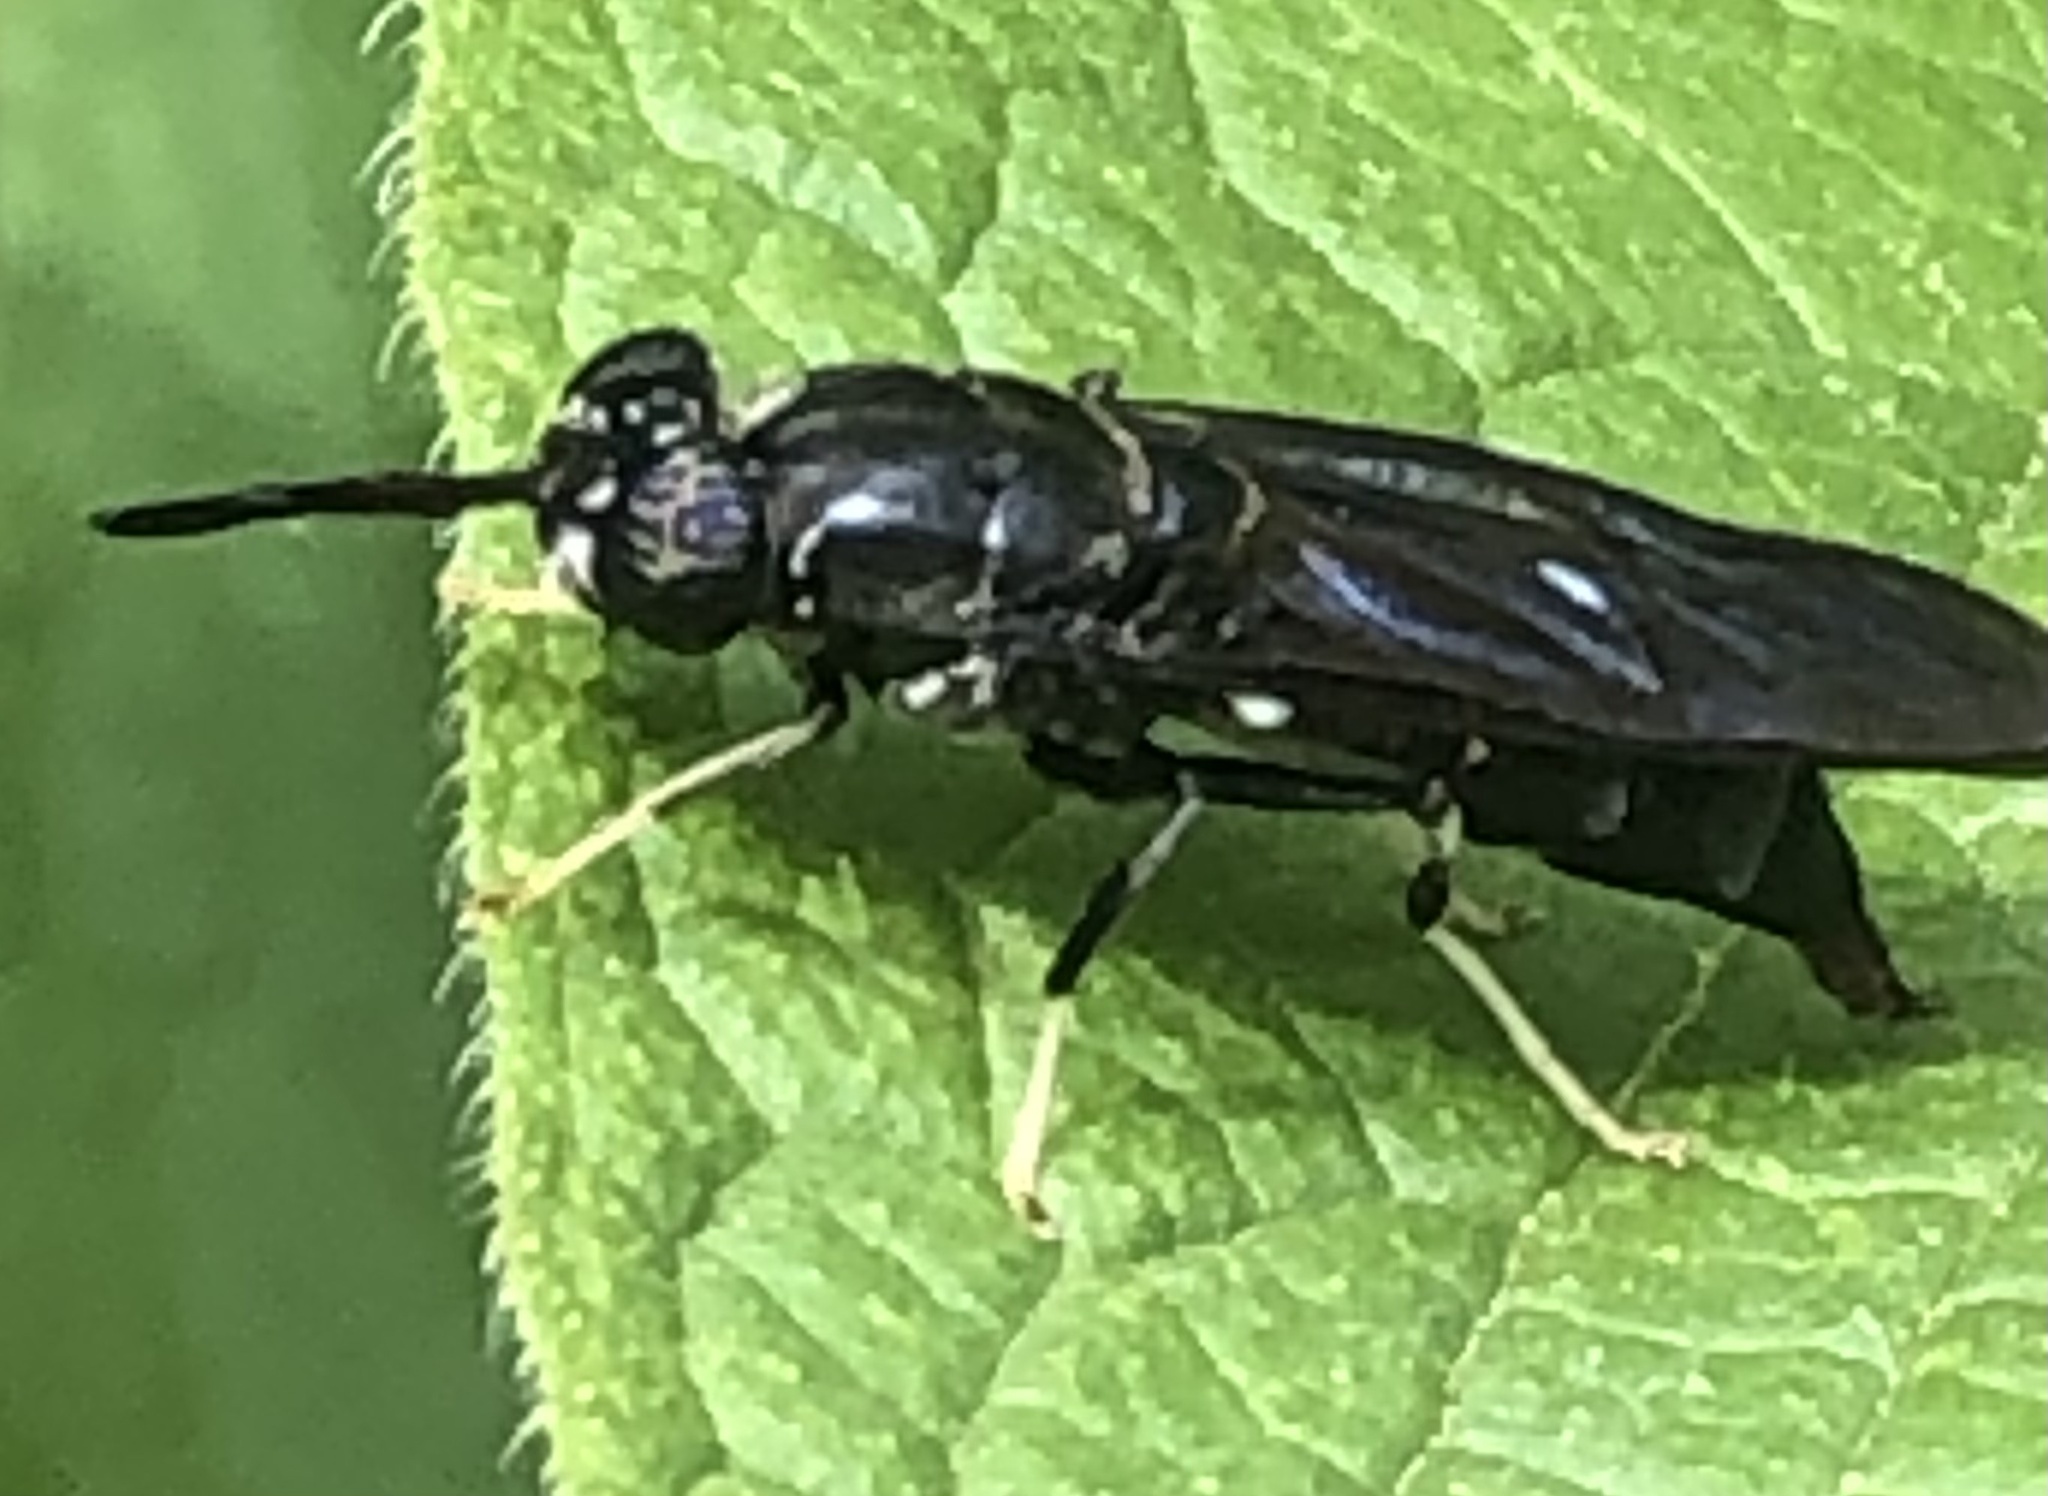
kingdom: Animalia
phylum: Arthropoda
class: Insecta
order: Diptera
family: Stratiomyidae
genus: Hermetia
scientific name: Hermetia illucens
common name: Black soldier fly
